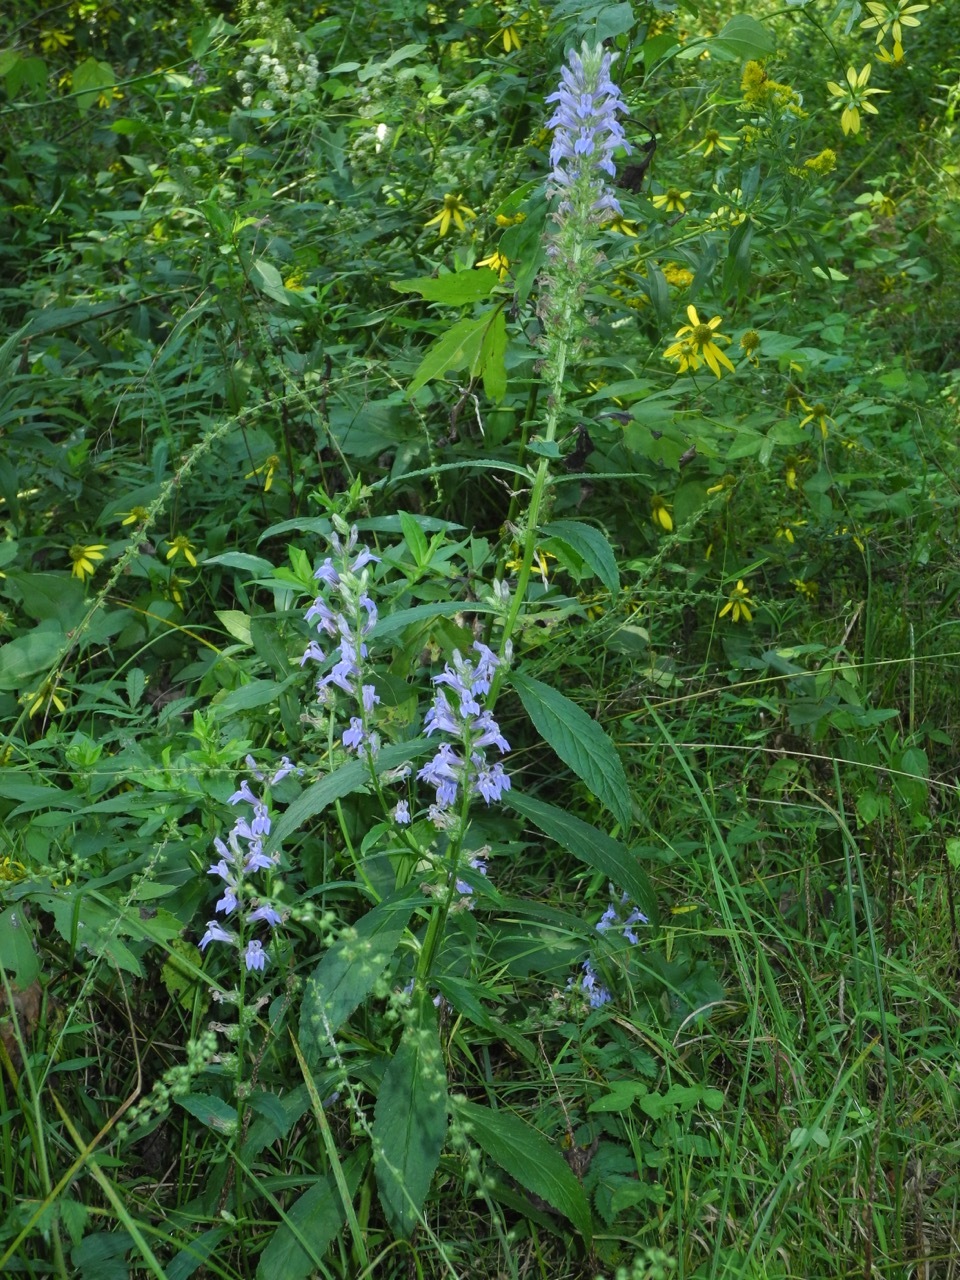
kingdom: Plantae
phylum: Tracheophyta
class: Magnoliopsida
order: Asterales
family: Campanulaceae
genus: Lobelia
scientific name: Lobelia siphilitica
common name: Great lobelia
